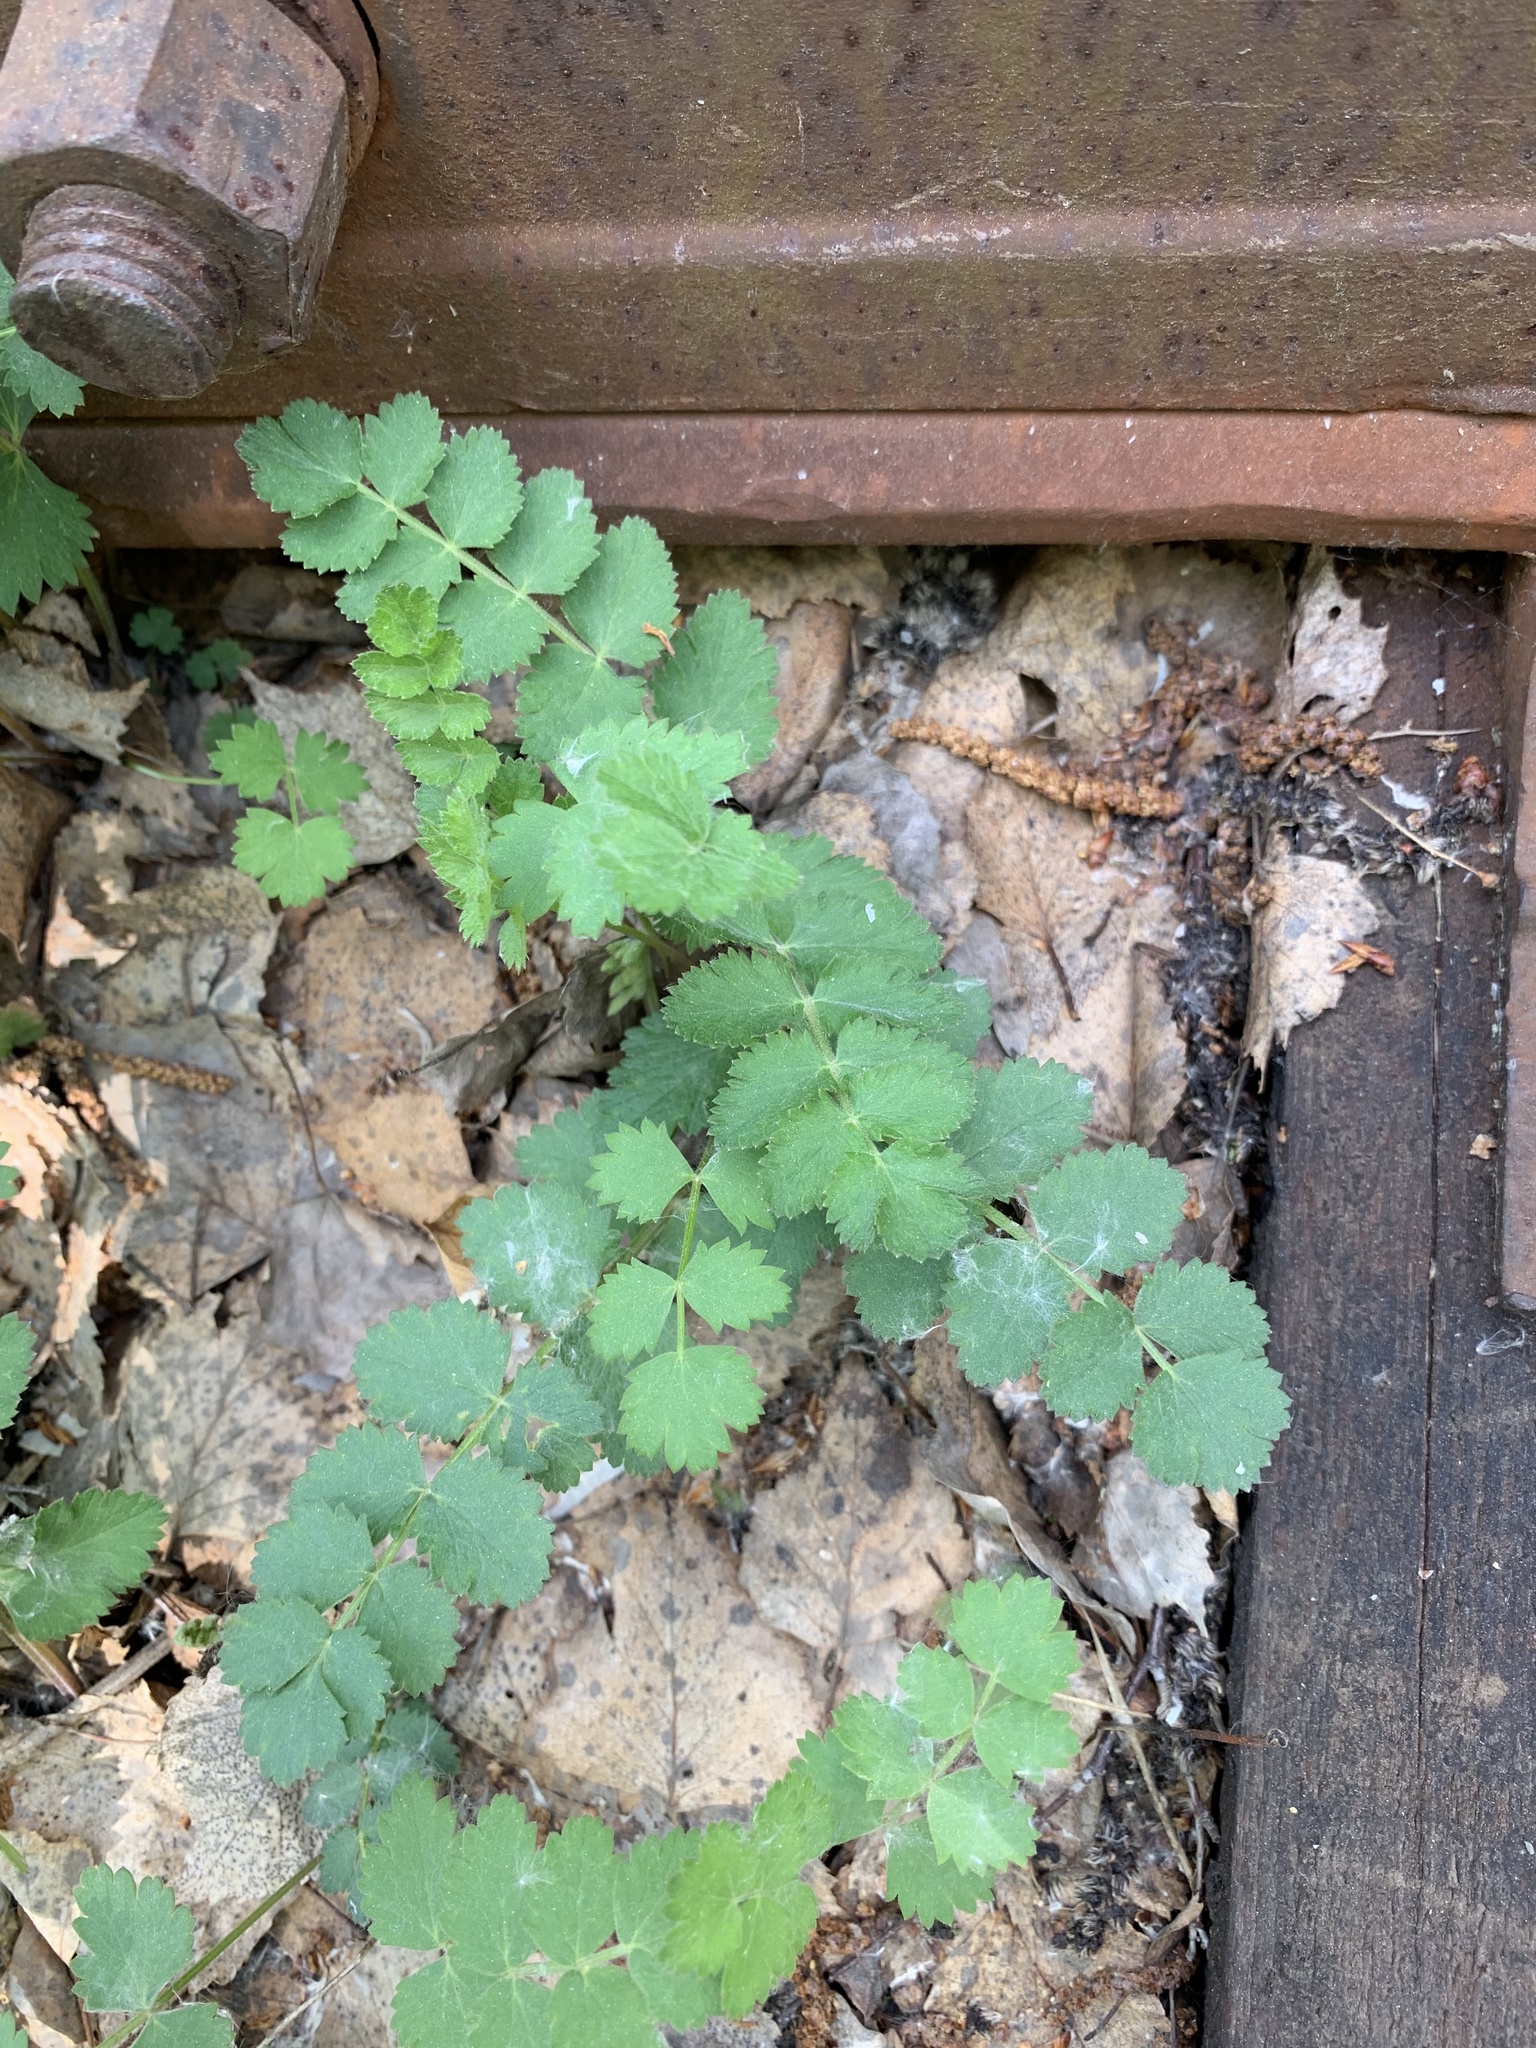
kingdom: Plantae
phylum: Tracheophyta
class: Magnoliopsida
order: Apiales
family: Apiaceae
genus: Pimpinella
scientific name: Pimpinella saxifraga
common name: Burnet-saxifrage
